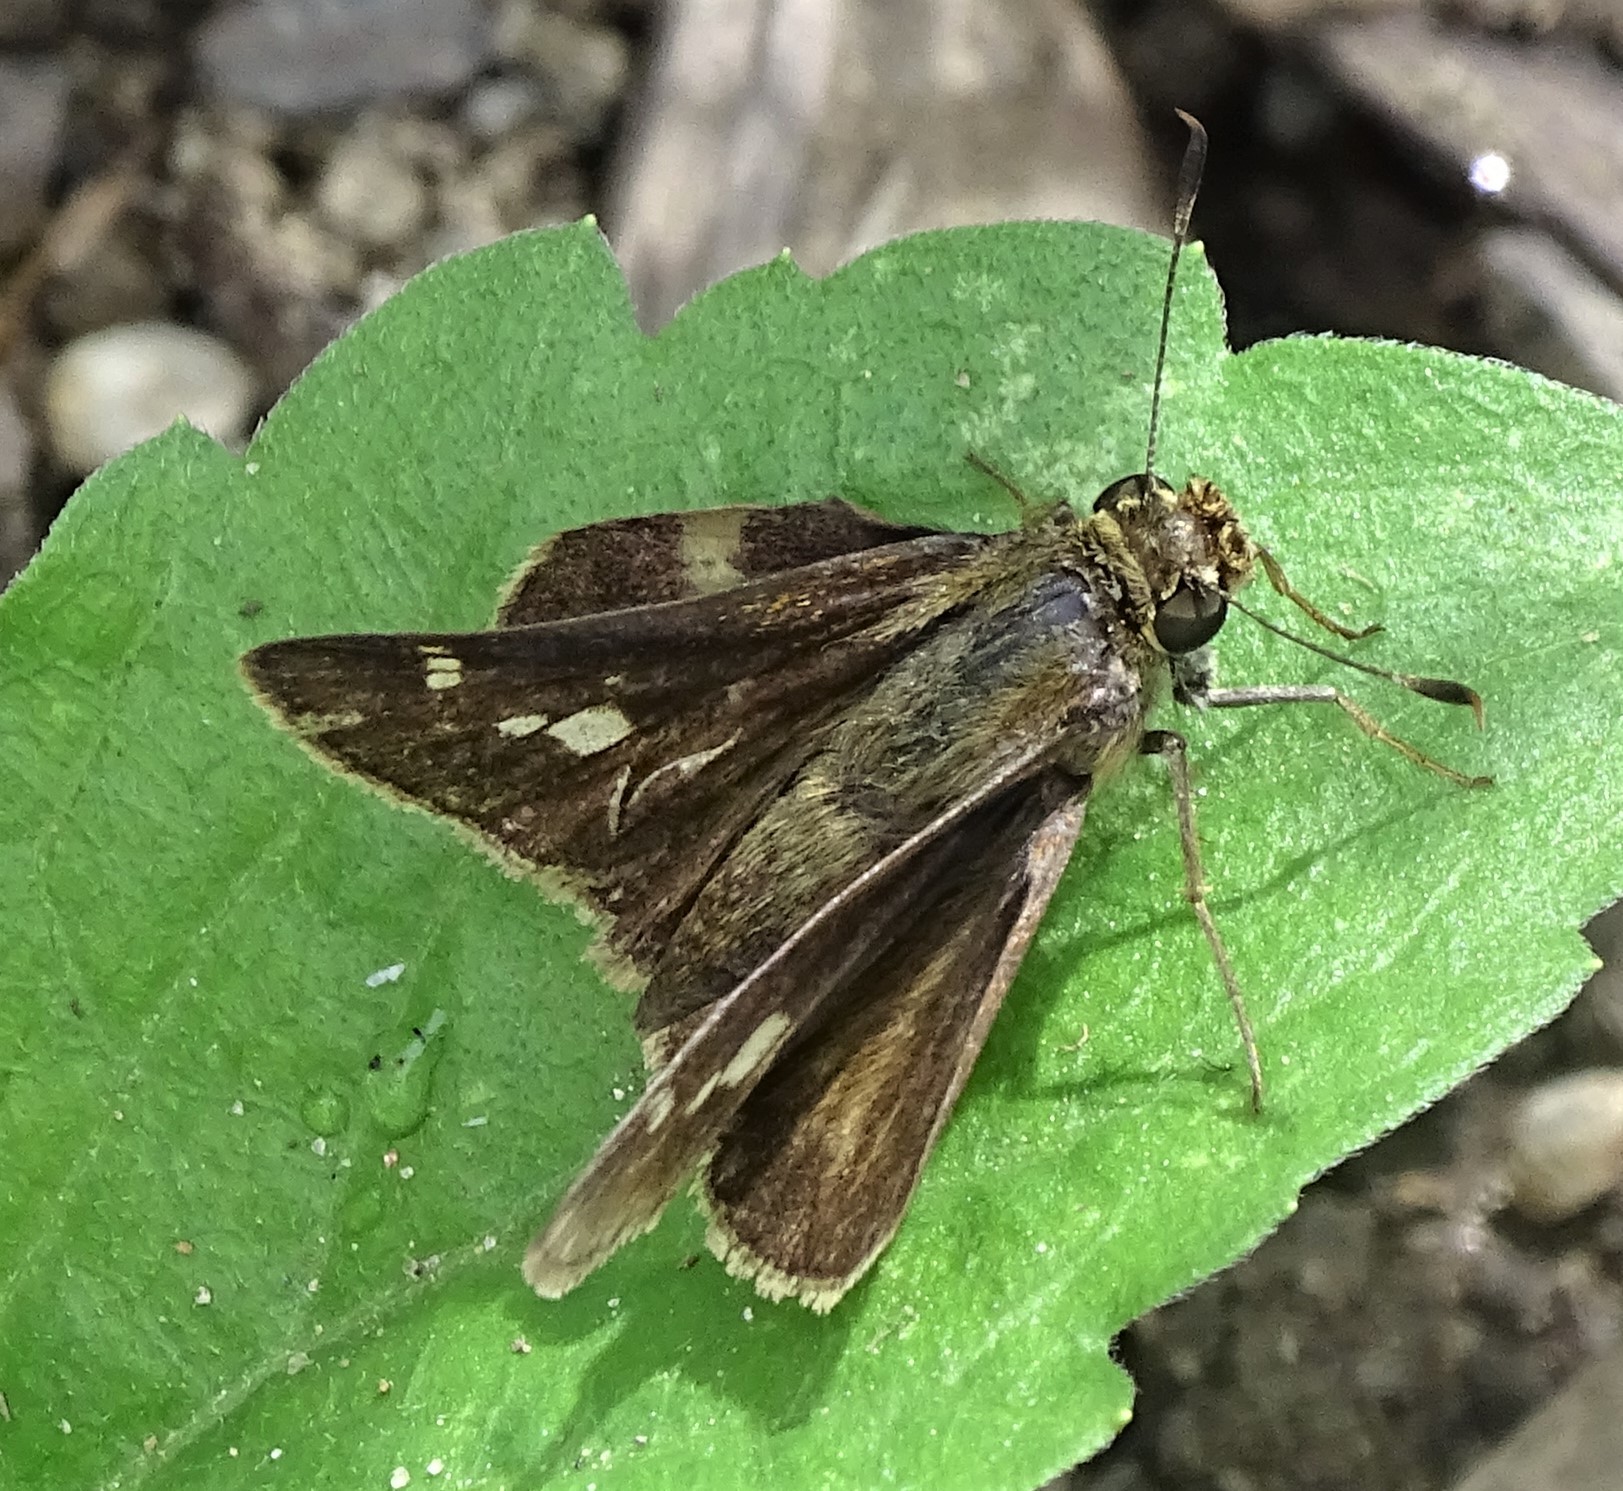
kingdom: Animalia
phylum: Arthropoda
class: Insecta
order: Lepidoptera
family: Hesperiidae
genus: Vernia
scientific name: Vernia verna
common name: Little glassywing
